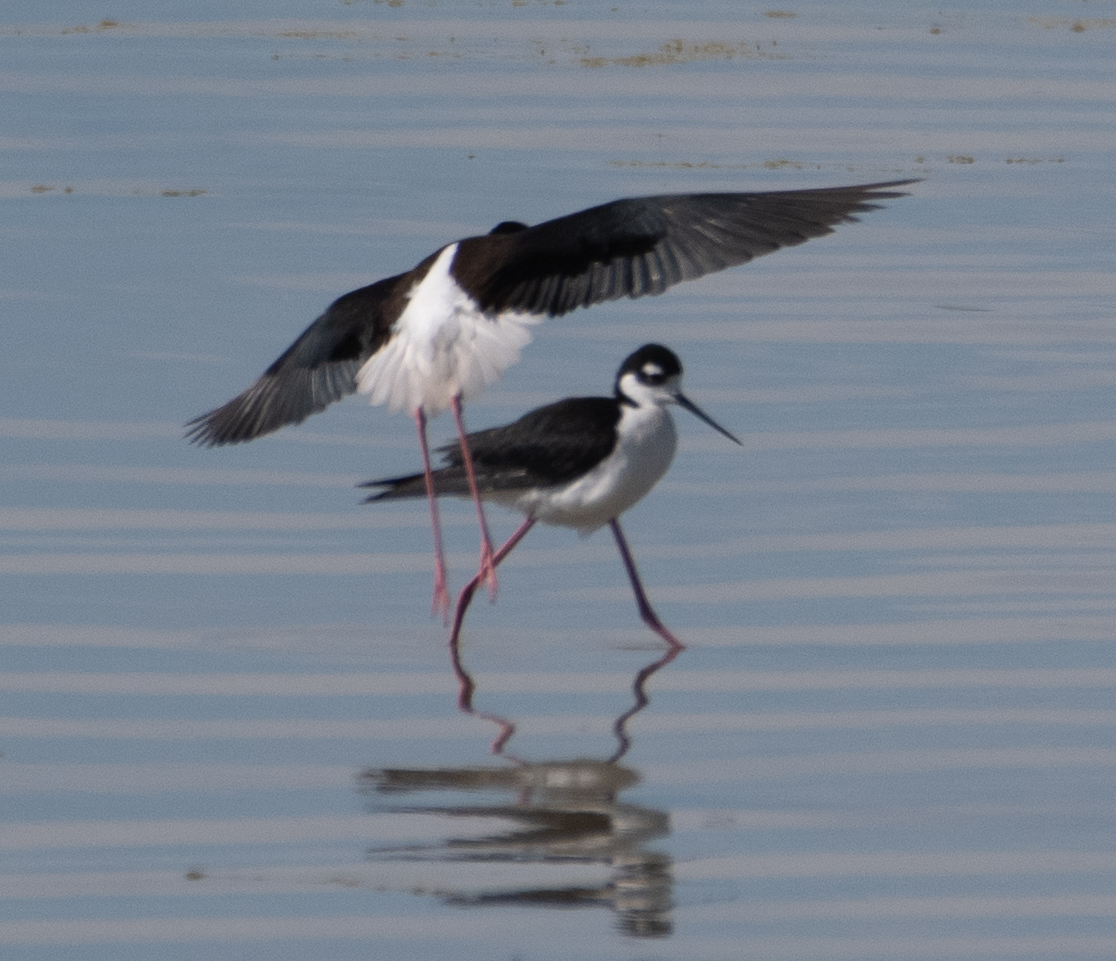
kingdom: Animalia
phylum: Chordata
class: Aves
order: Charadriiformes
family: Recurvirostridae
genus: Himantopus
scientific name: Himantopus mexicanus
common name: Black-necked stilt
